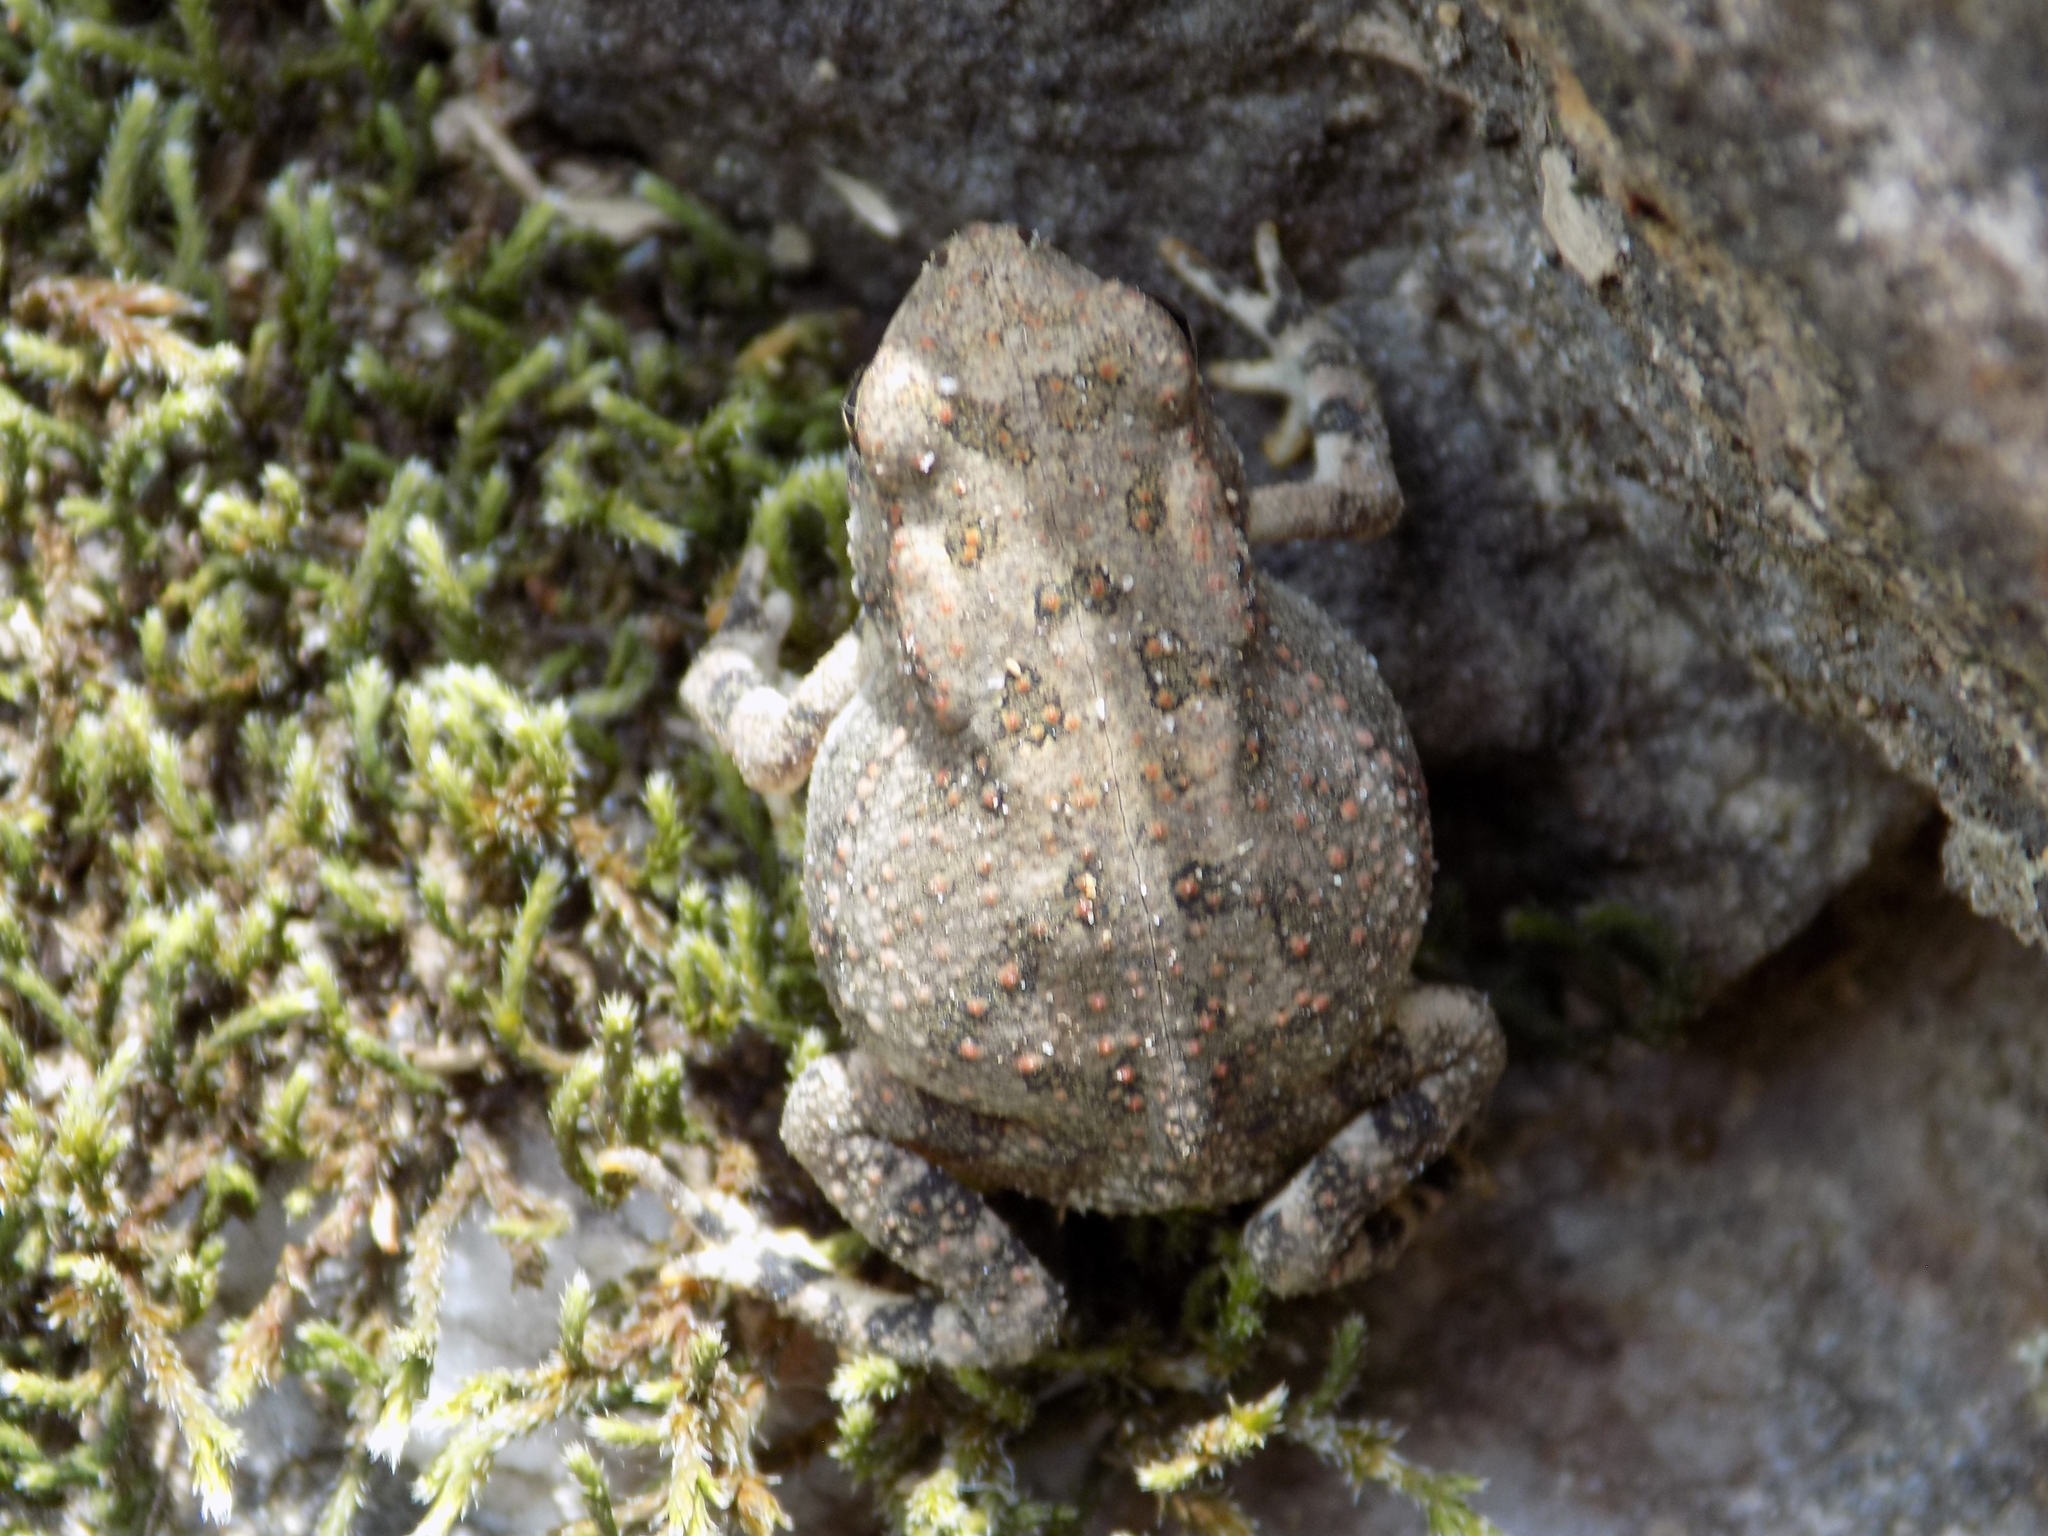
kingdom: Animalia
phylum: Chordata
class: Amphibia
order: Anura
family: Bufonidae
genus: Anaxyrus
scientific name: Anaxyrus fowleri
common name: Fowler's toad
